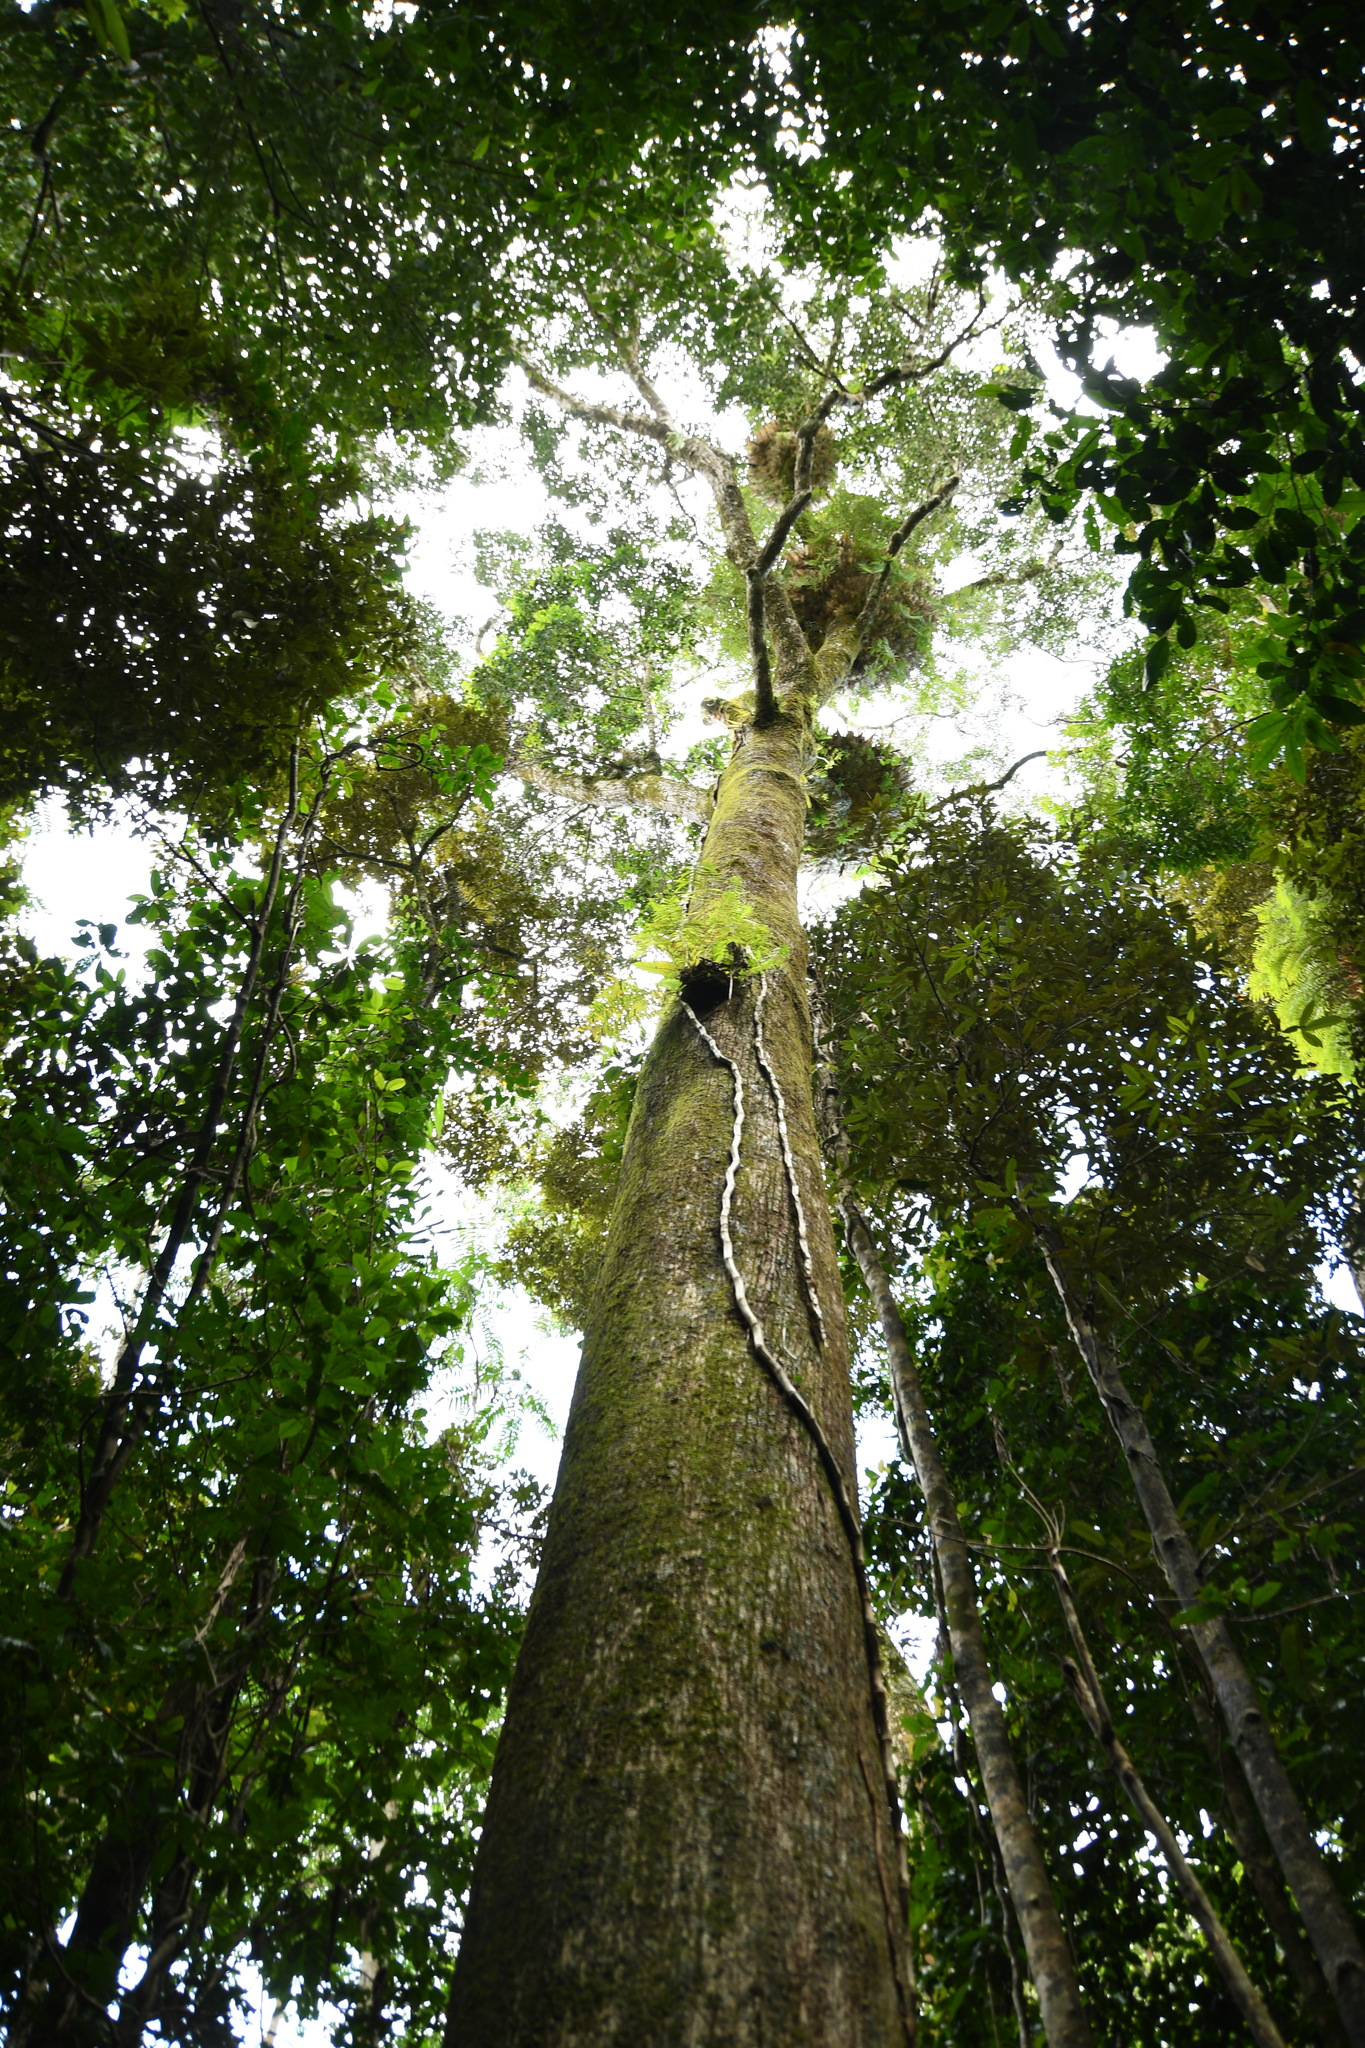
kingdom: Plantae
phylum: Tracheophyta
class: Magnoliopsida
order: Sapindales
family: Rutaceae
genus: Flindersia
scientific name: Flindersia brayleyana
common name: Queensland maple
